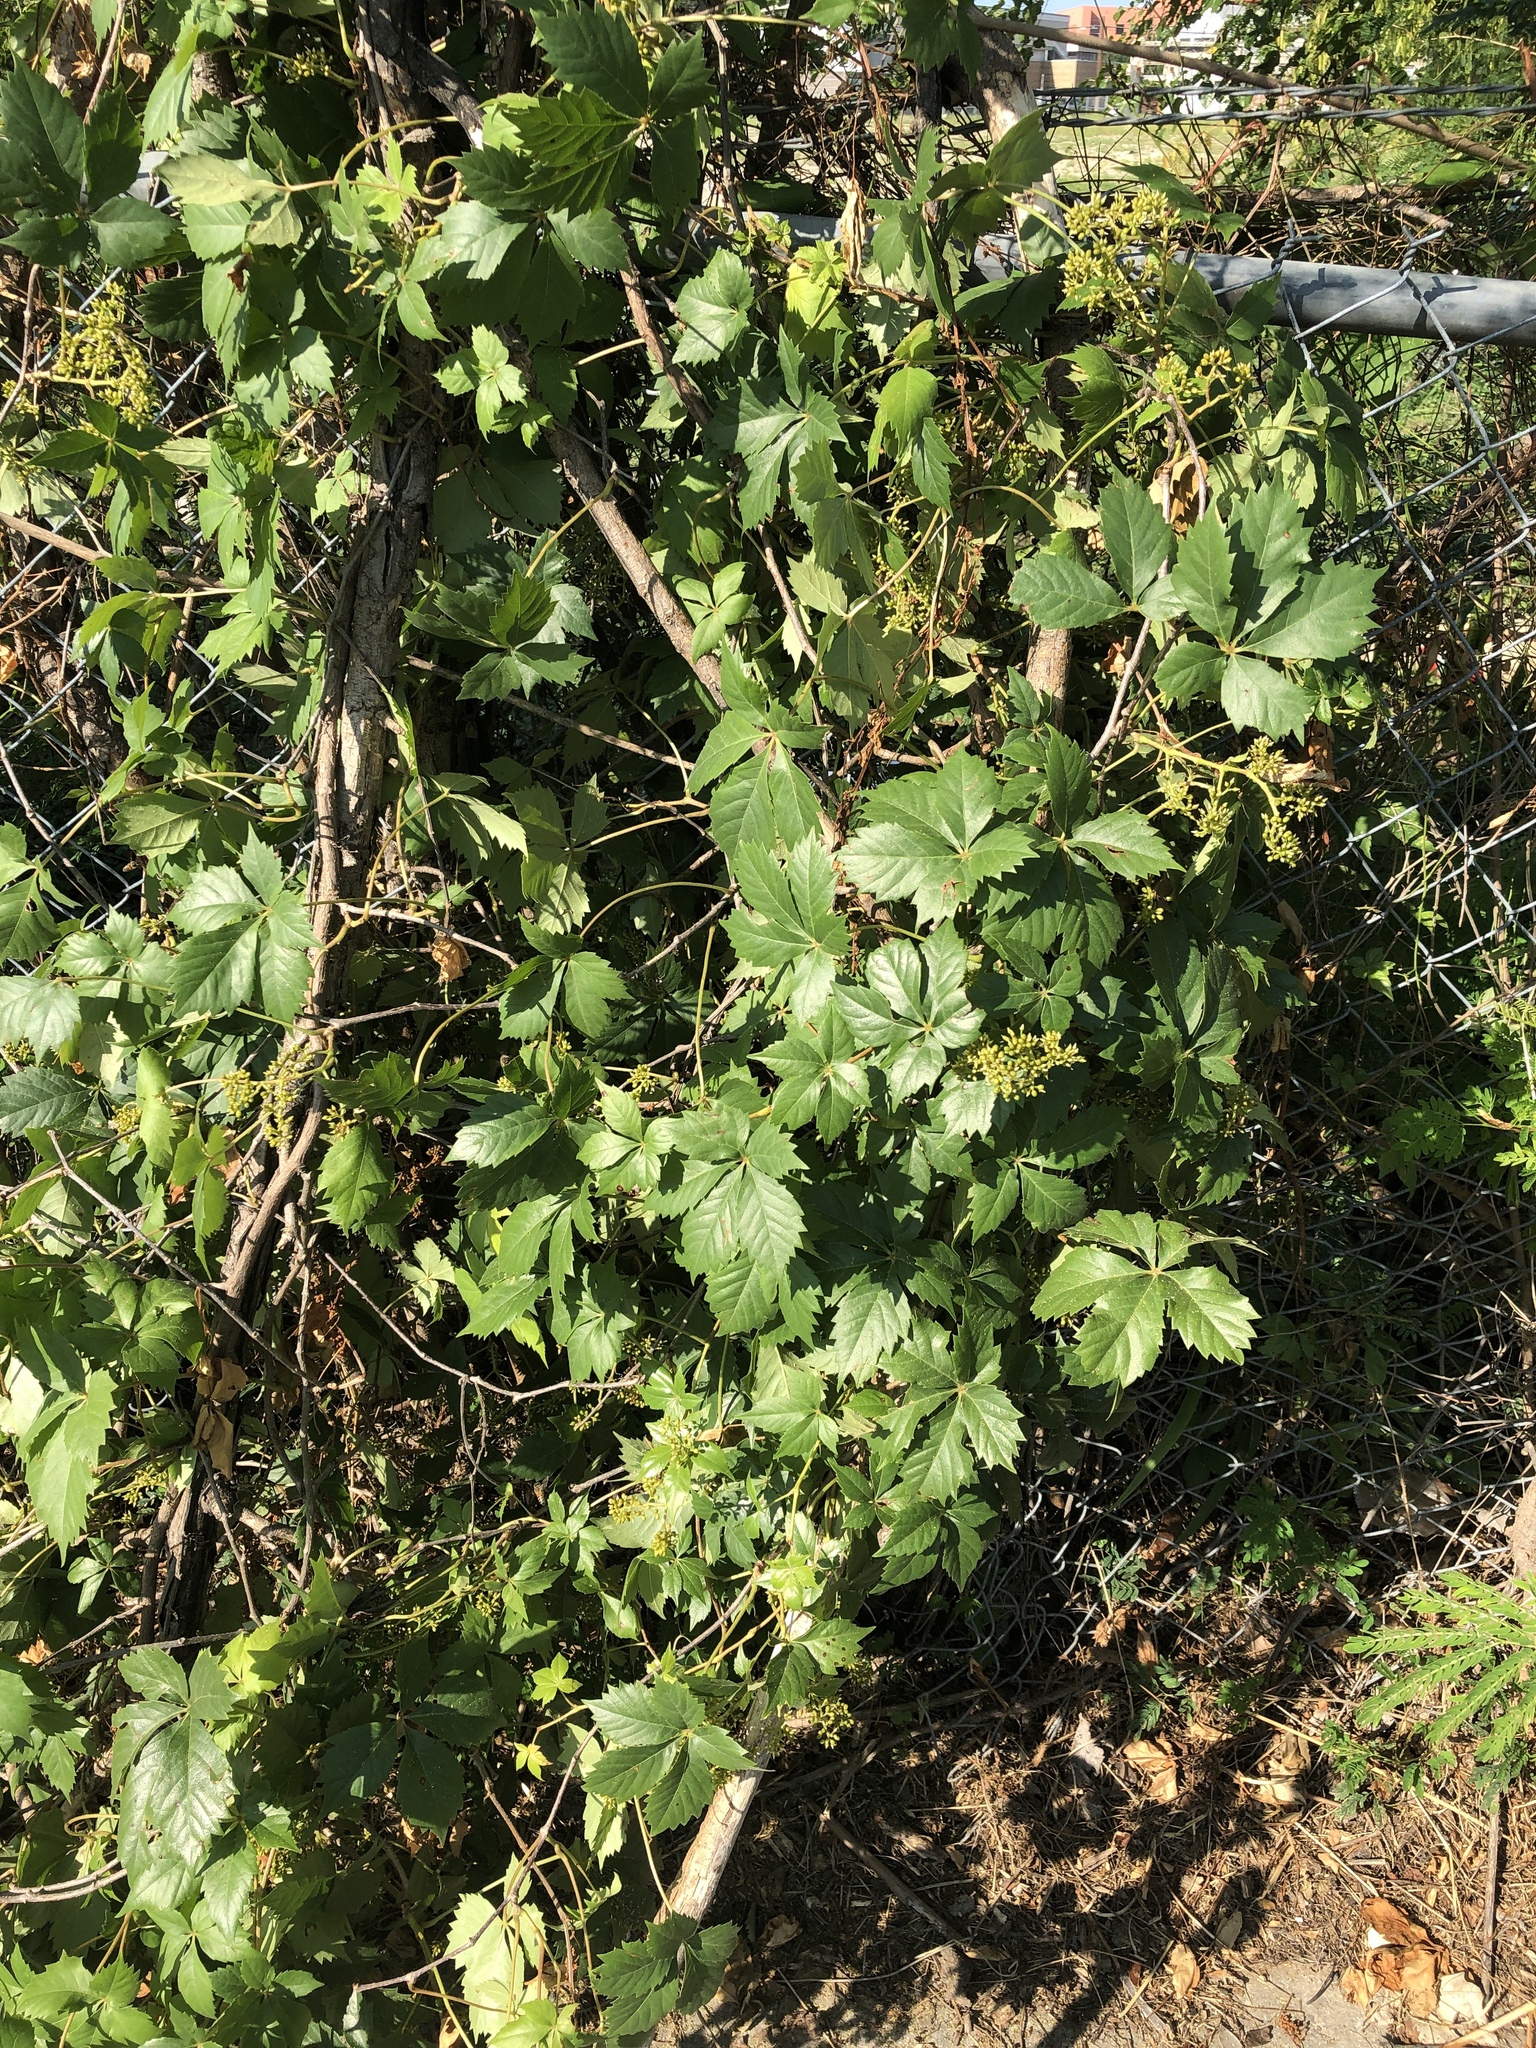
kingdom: Plantae
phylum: Tracheophyta
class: Magnoliopsida
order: Vitales
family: Vitaceae
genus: Parthenocissus
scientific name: Parthenocissus quinquefolia
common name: Virginia-creeper
